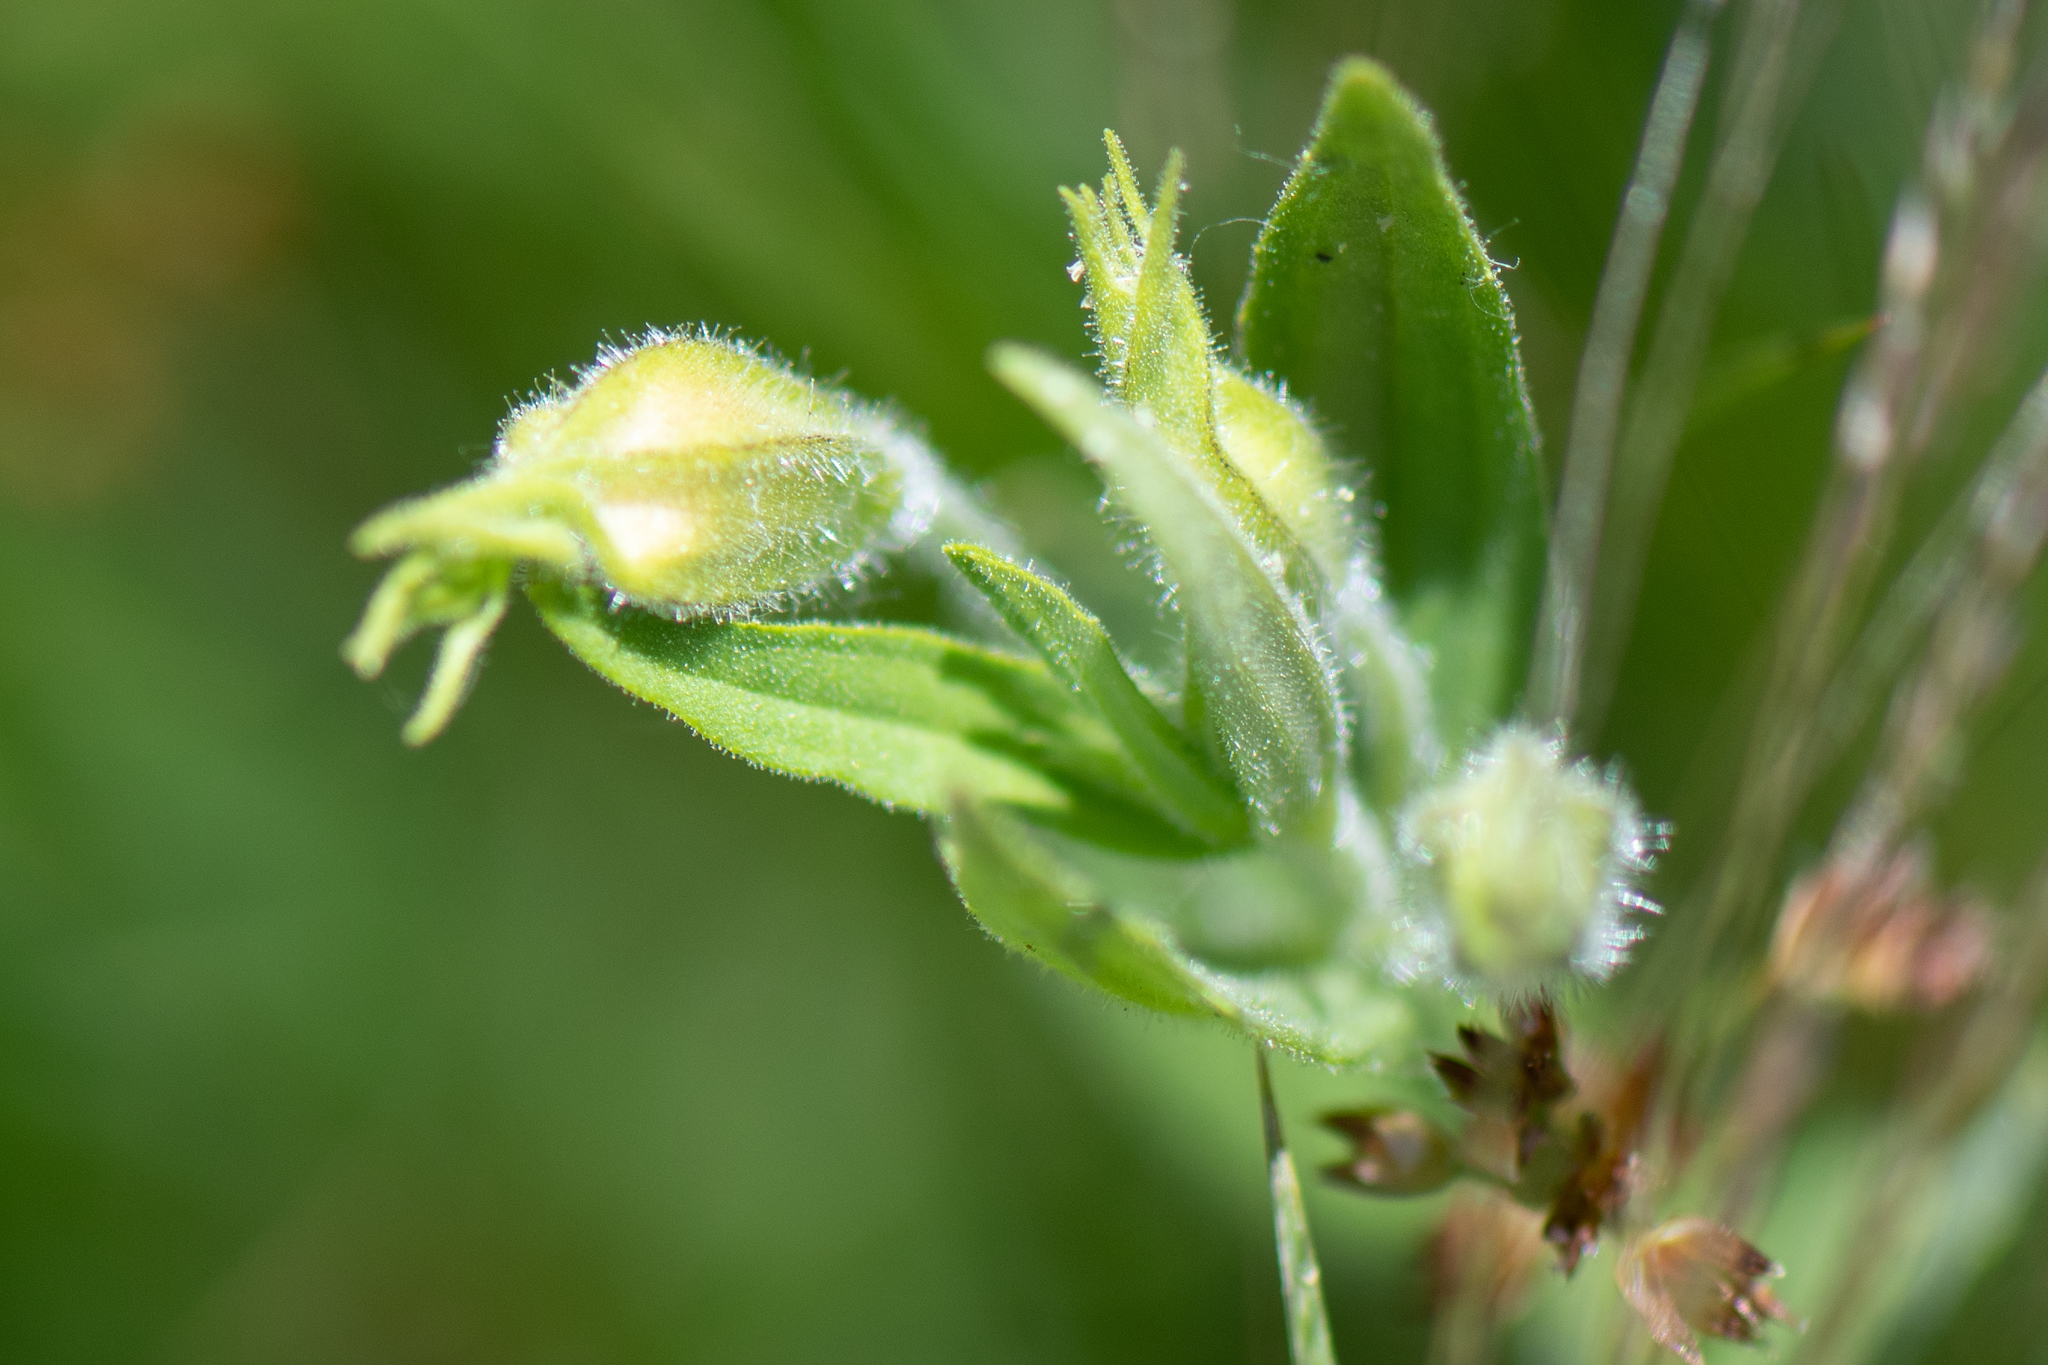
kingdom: Plantae
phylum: Tracheophyta
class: Magnoliopsida
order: Lamiales
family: Phrymaceae
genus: Erythranthe
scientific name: Erythranthe erubescens
